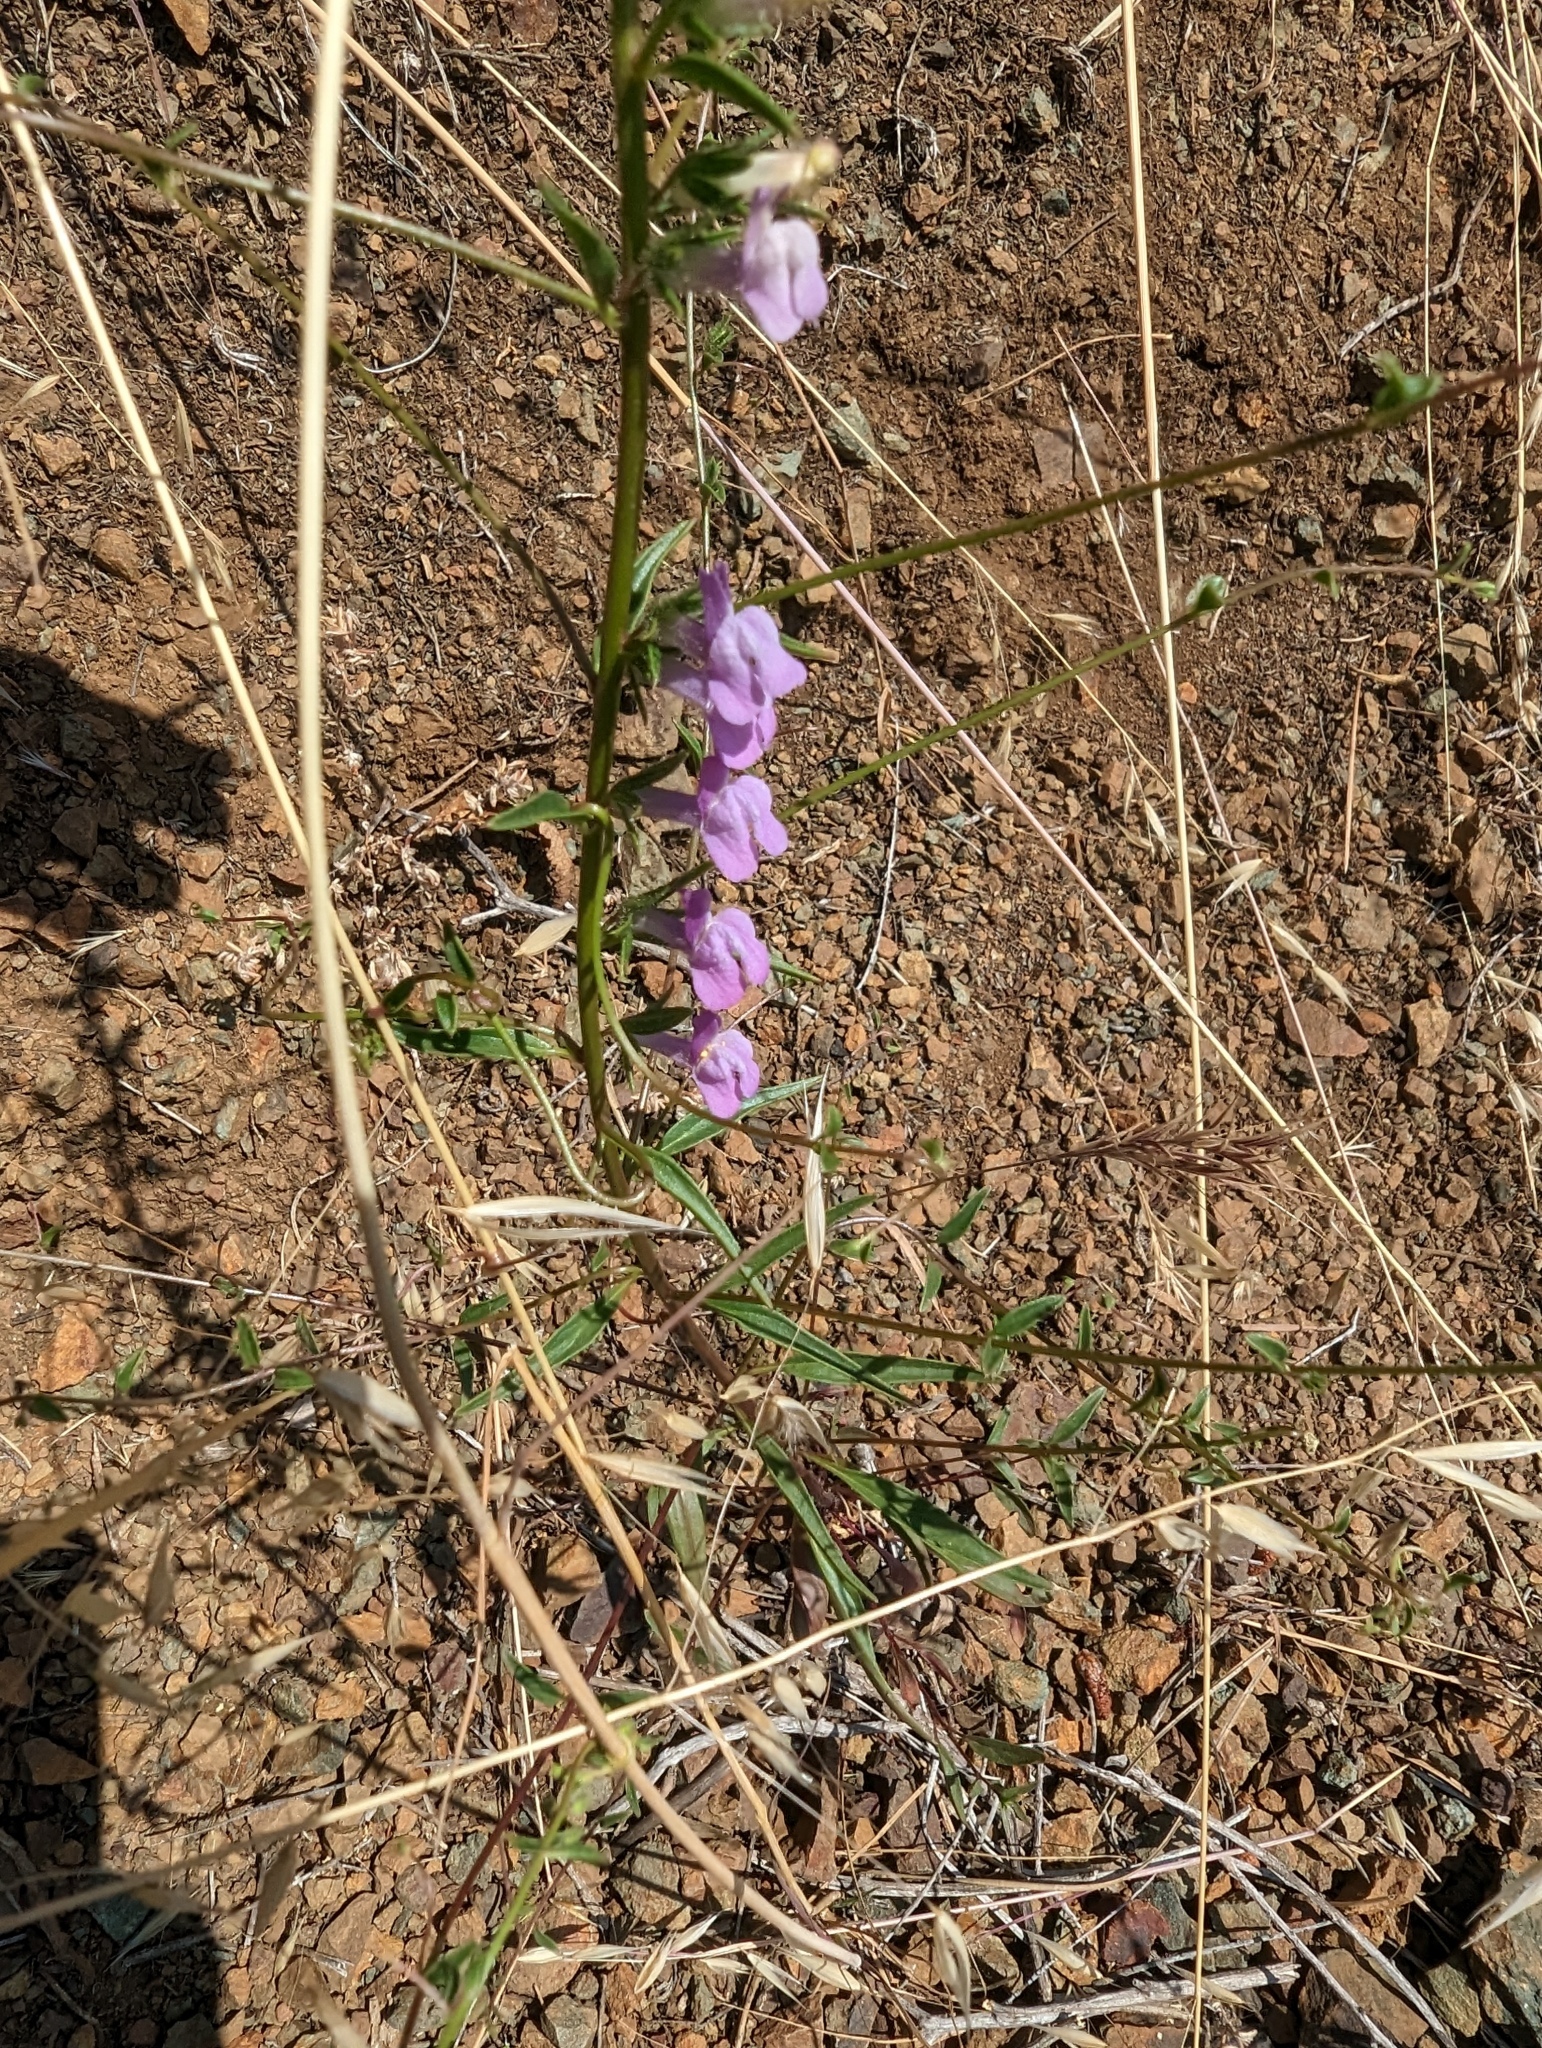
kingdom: Plantae
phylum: Tracheophyta
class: Magnoliopsida
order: Lamiales
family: Plantaginaceae
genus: Sairocarpus
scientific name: Sairocarpus vexillocalyculatus
